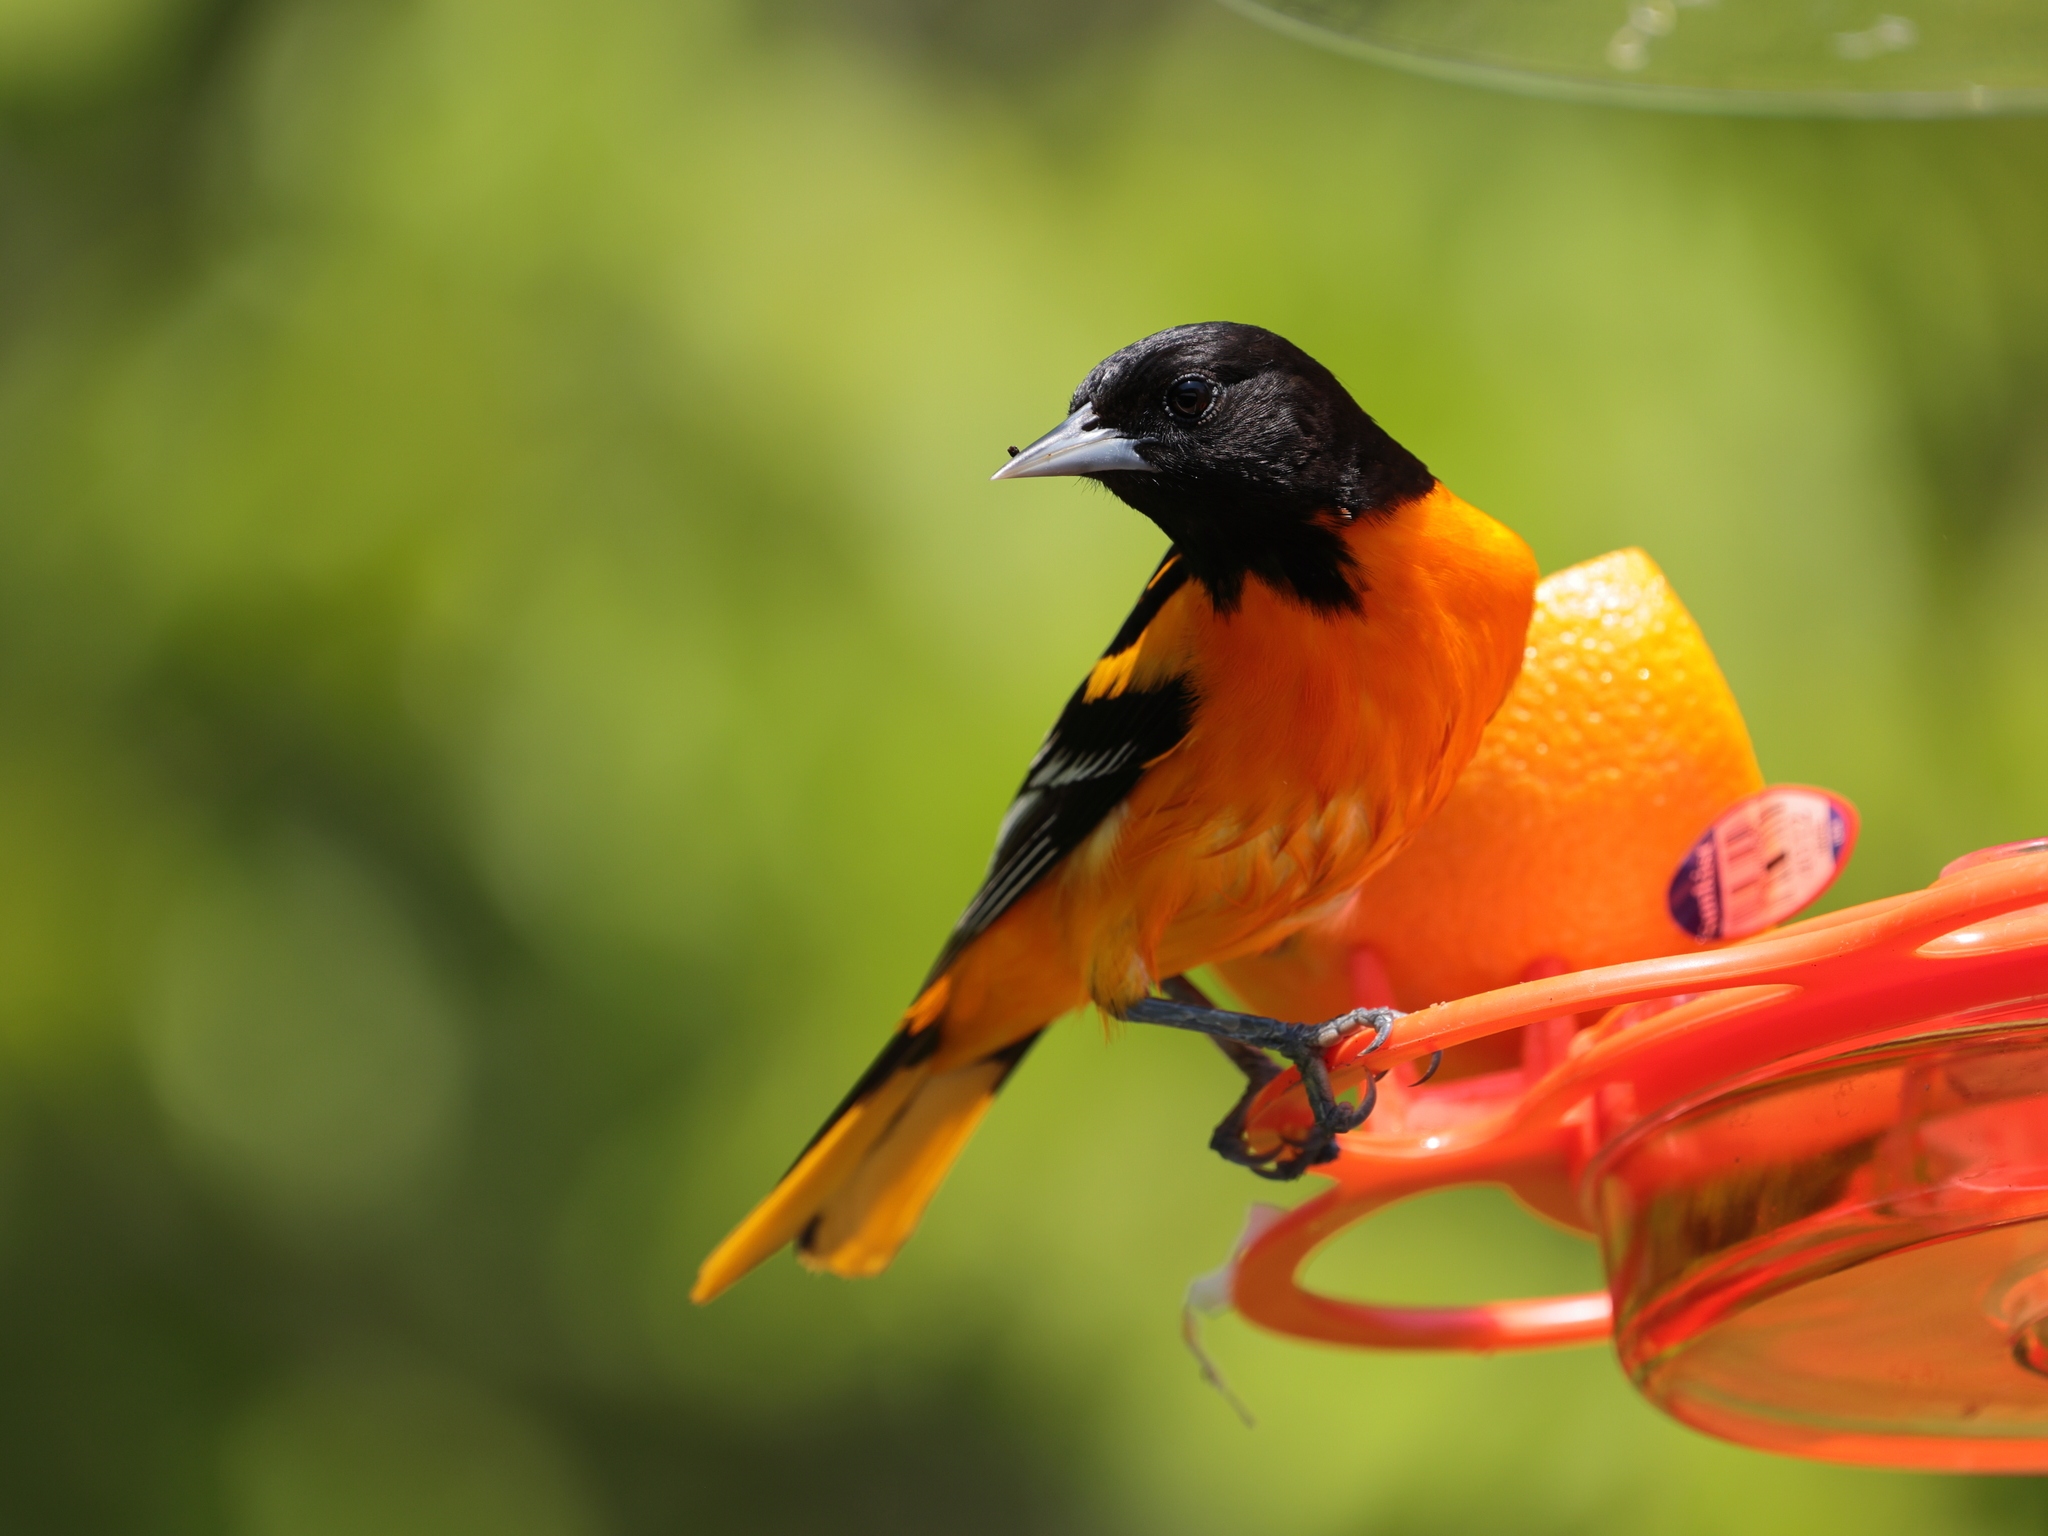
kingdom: Animalia
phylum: Chordata
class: Aves
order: Passeriformes
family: Icteridae
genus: Icterus
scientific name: Icterus galbula
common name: Baltimore oriole
